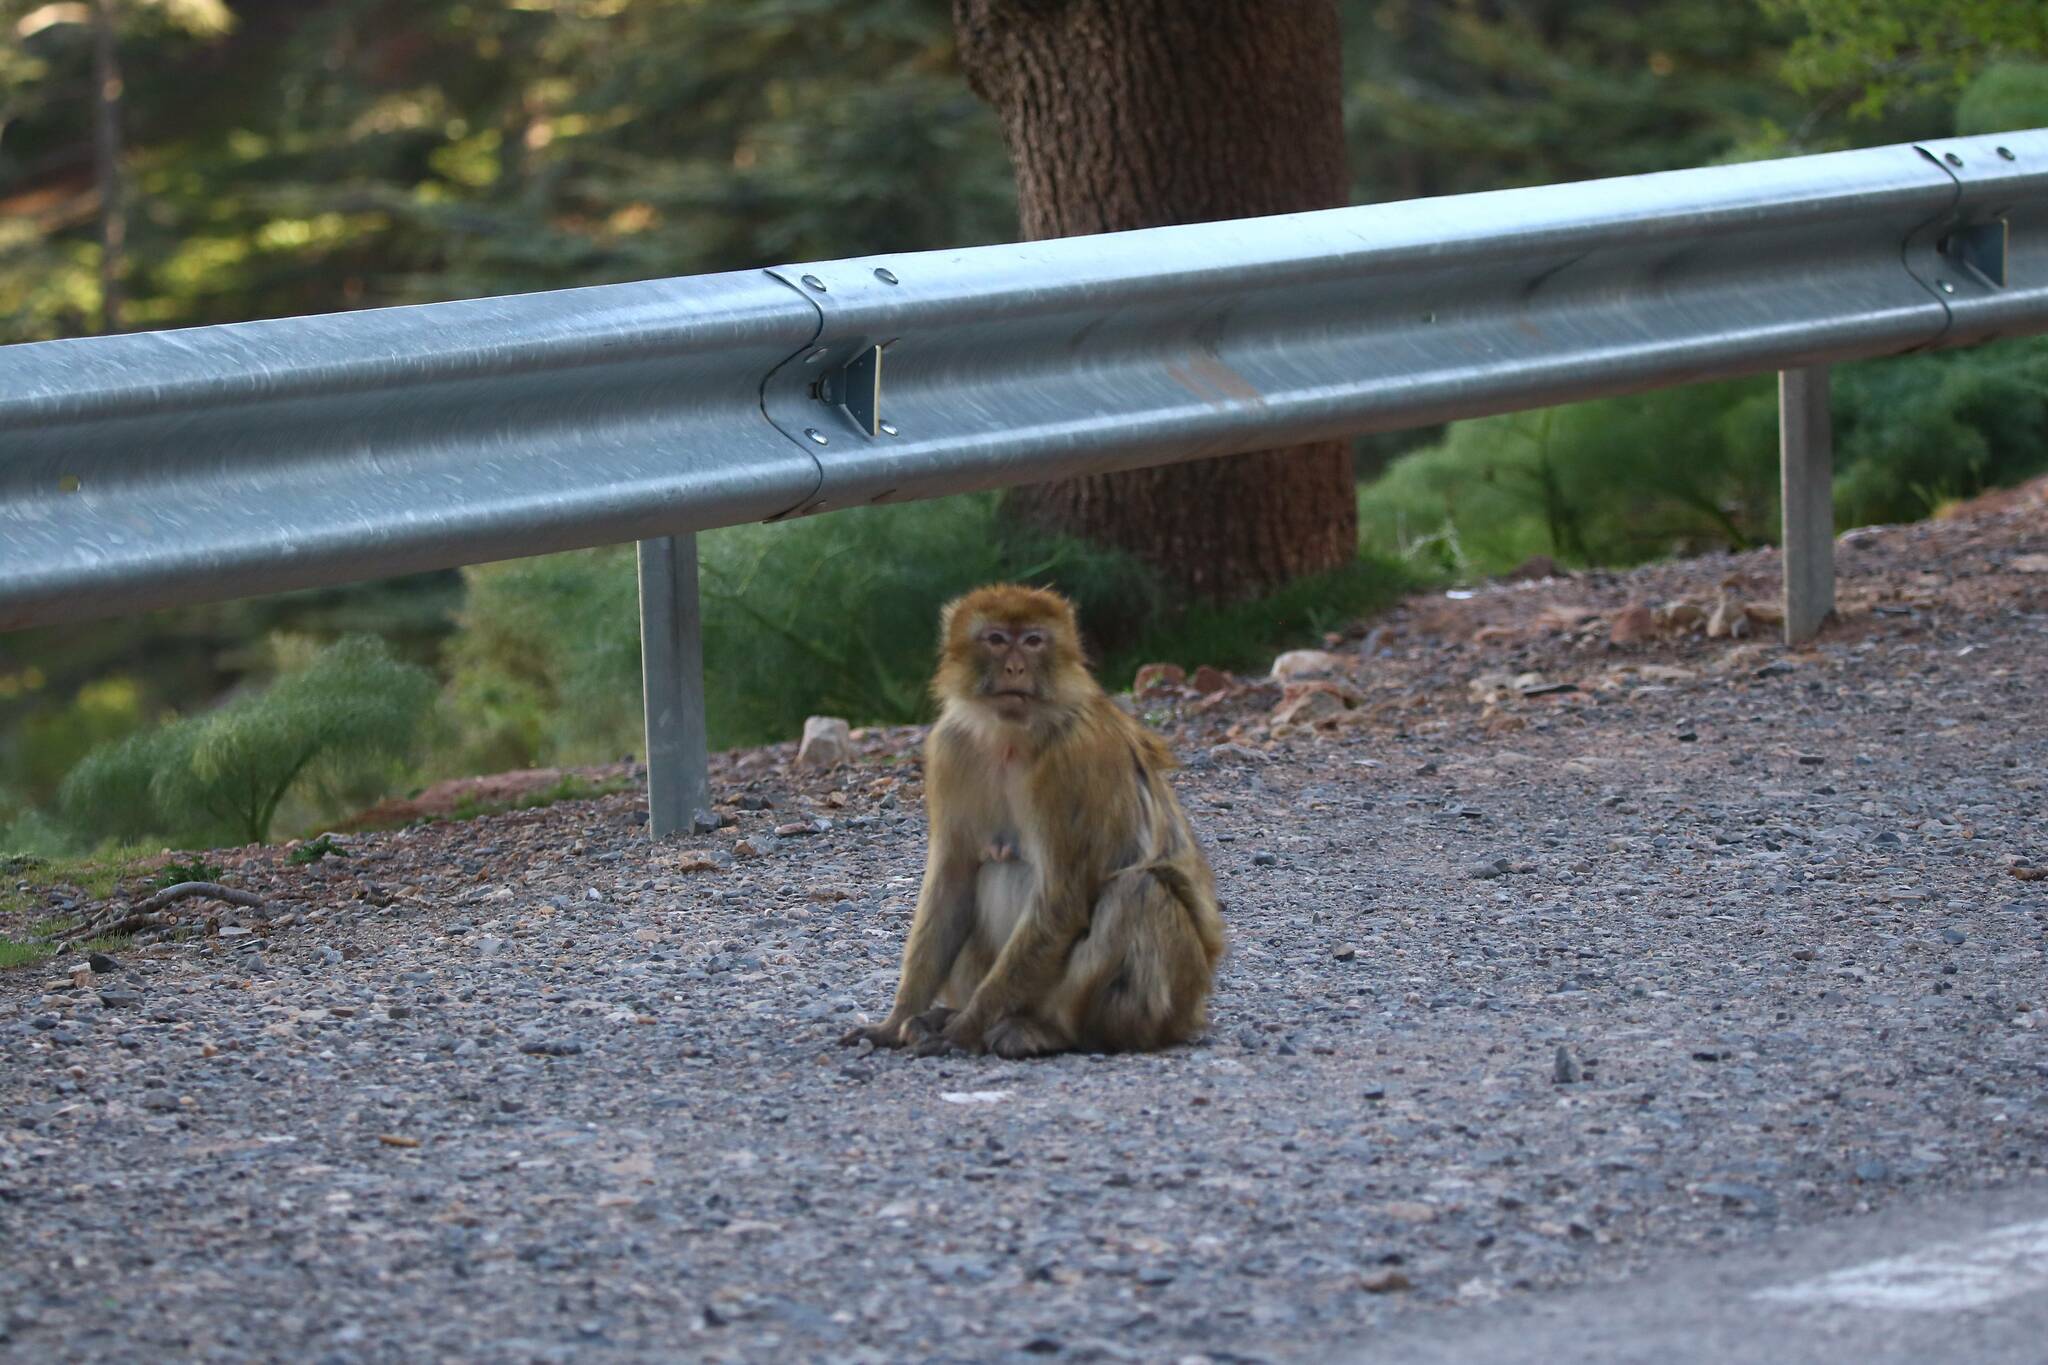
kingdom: Animalia
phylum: Chordata
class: Mammalia
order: Primates
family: Cercopithecidae
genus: Macaca
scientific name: Macaca sylvanus
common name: Barbary macaque
